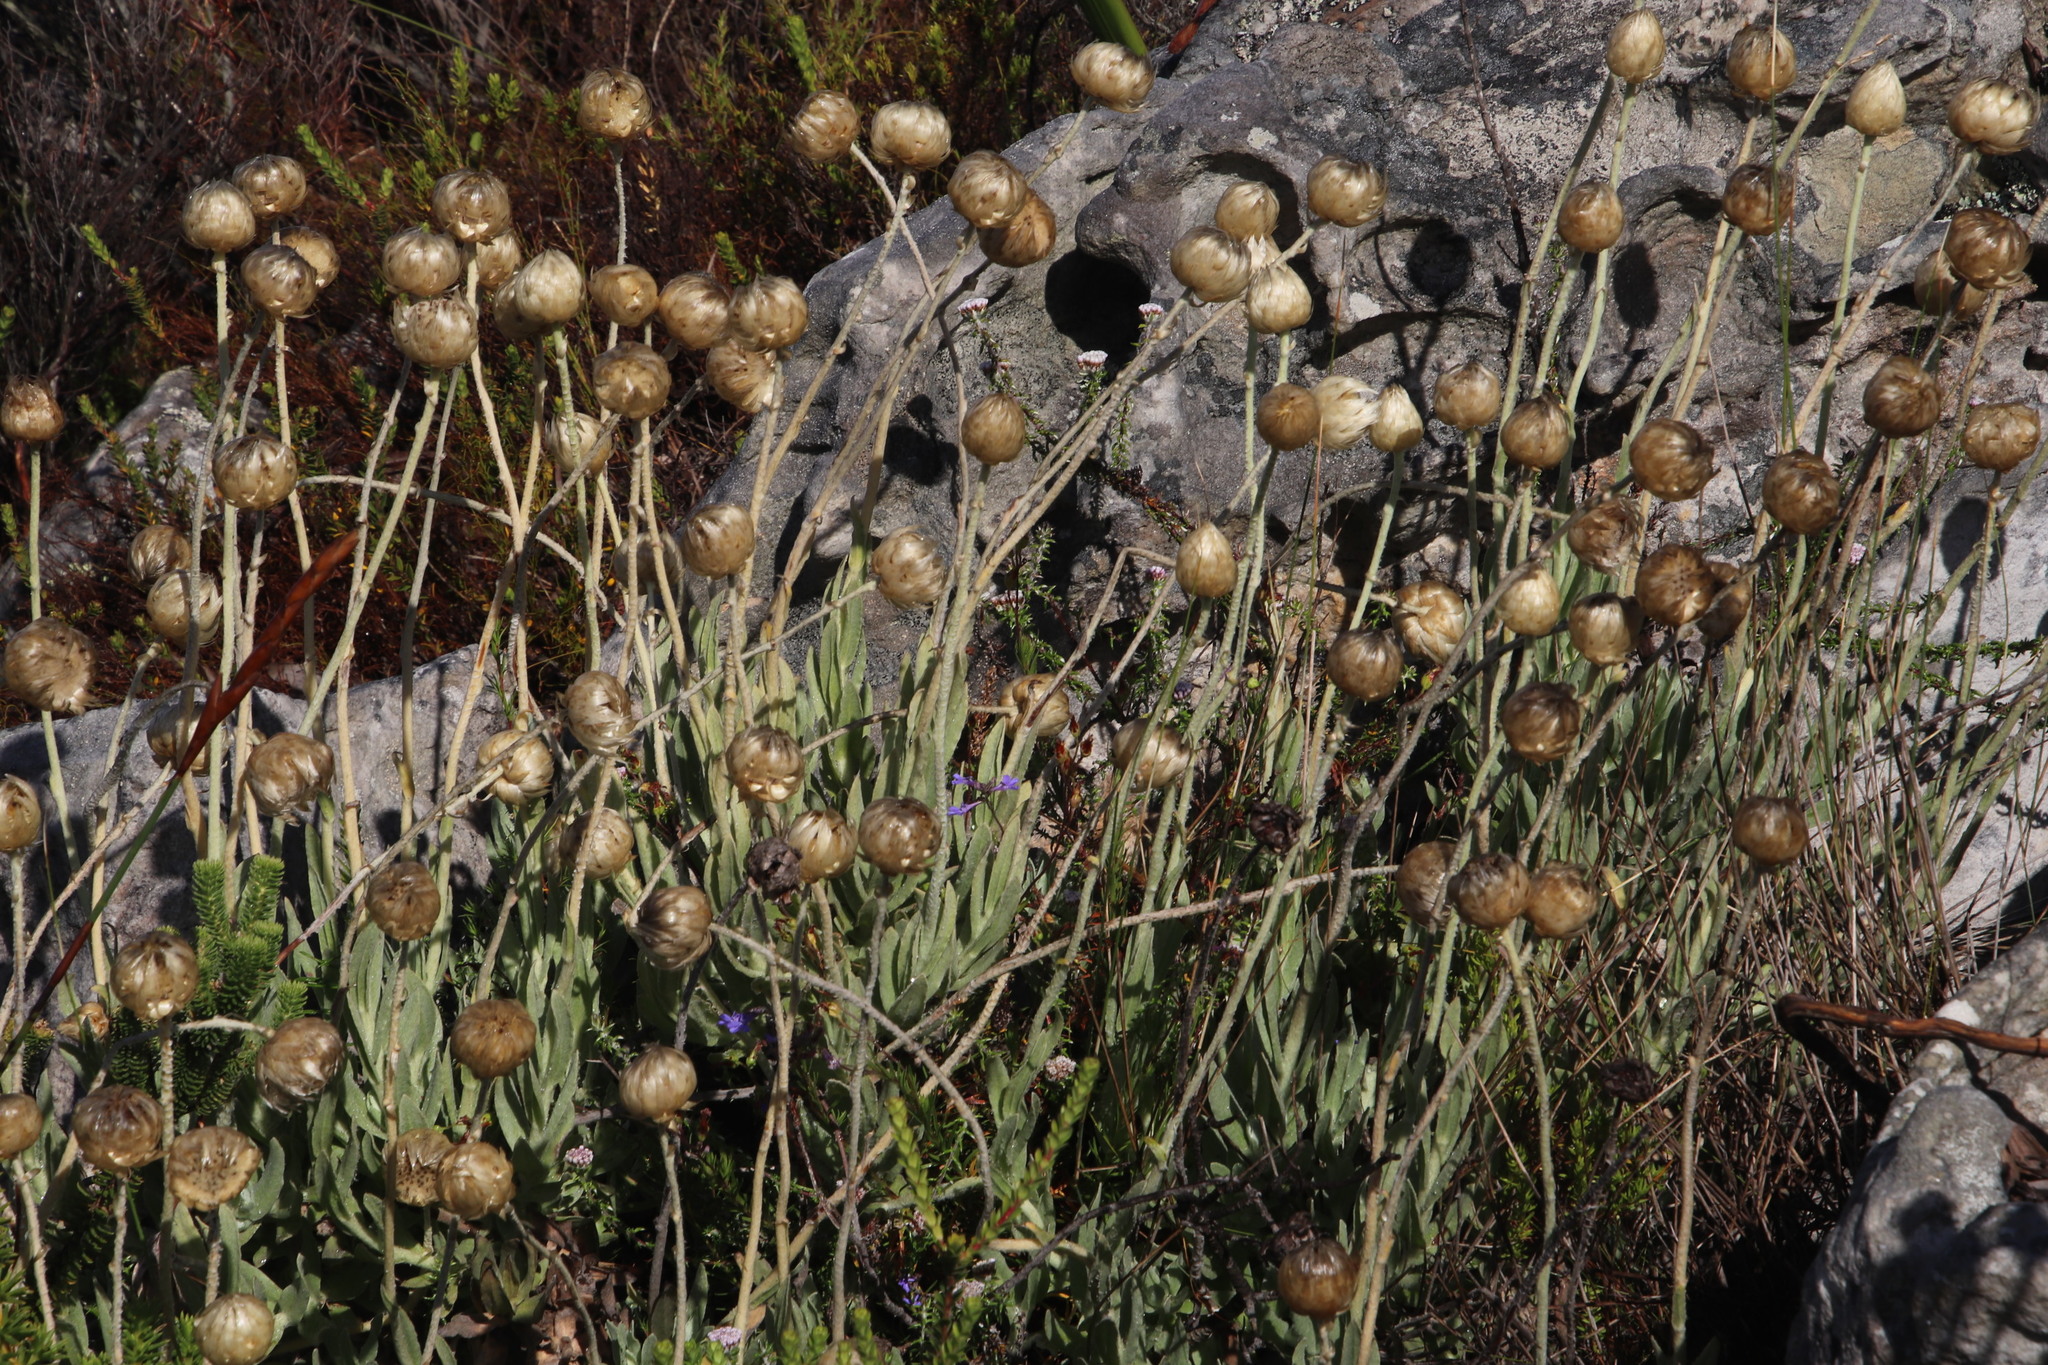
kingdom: Plantae
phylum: Tracheophyta
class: Magnoliopsida
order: Asterales
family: Asteraceae
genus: Syncarpha
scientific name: Syncarpha speciosissima
